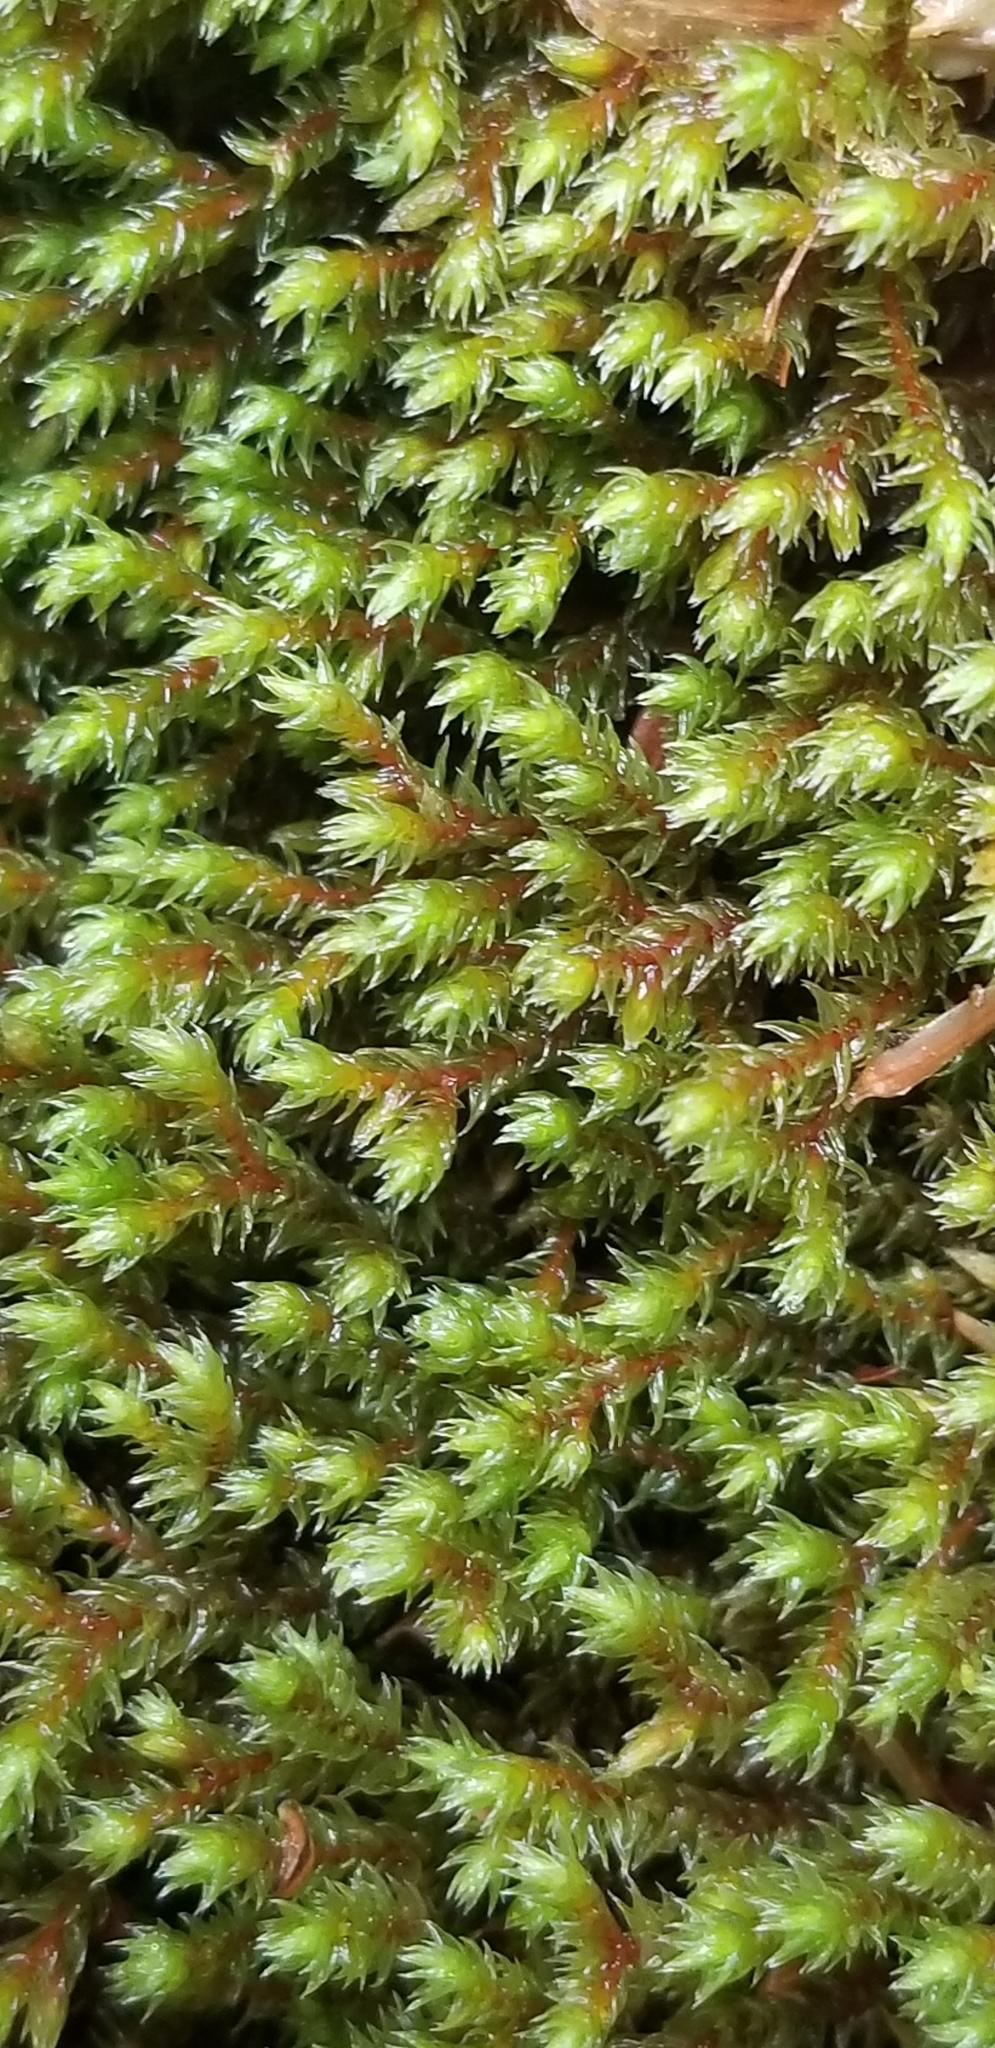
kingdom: Plantae
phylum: Bryophyta
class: Bryopsida
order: Hedwigiales
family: Hedwigiaceae
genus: Hedwigia
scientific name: Hedwigia ciliata
